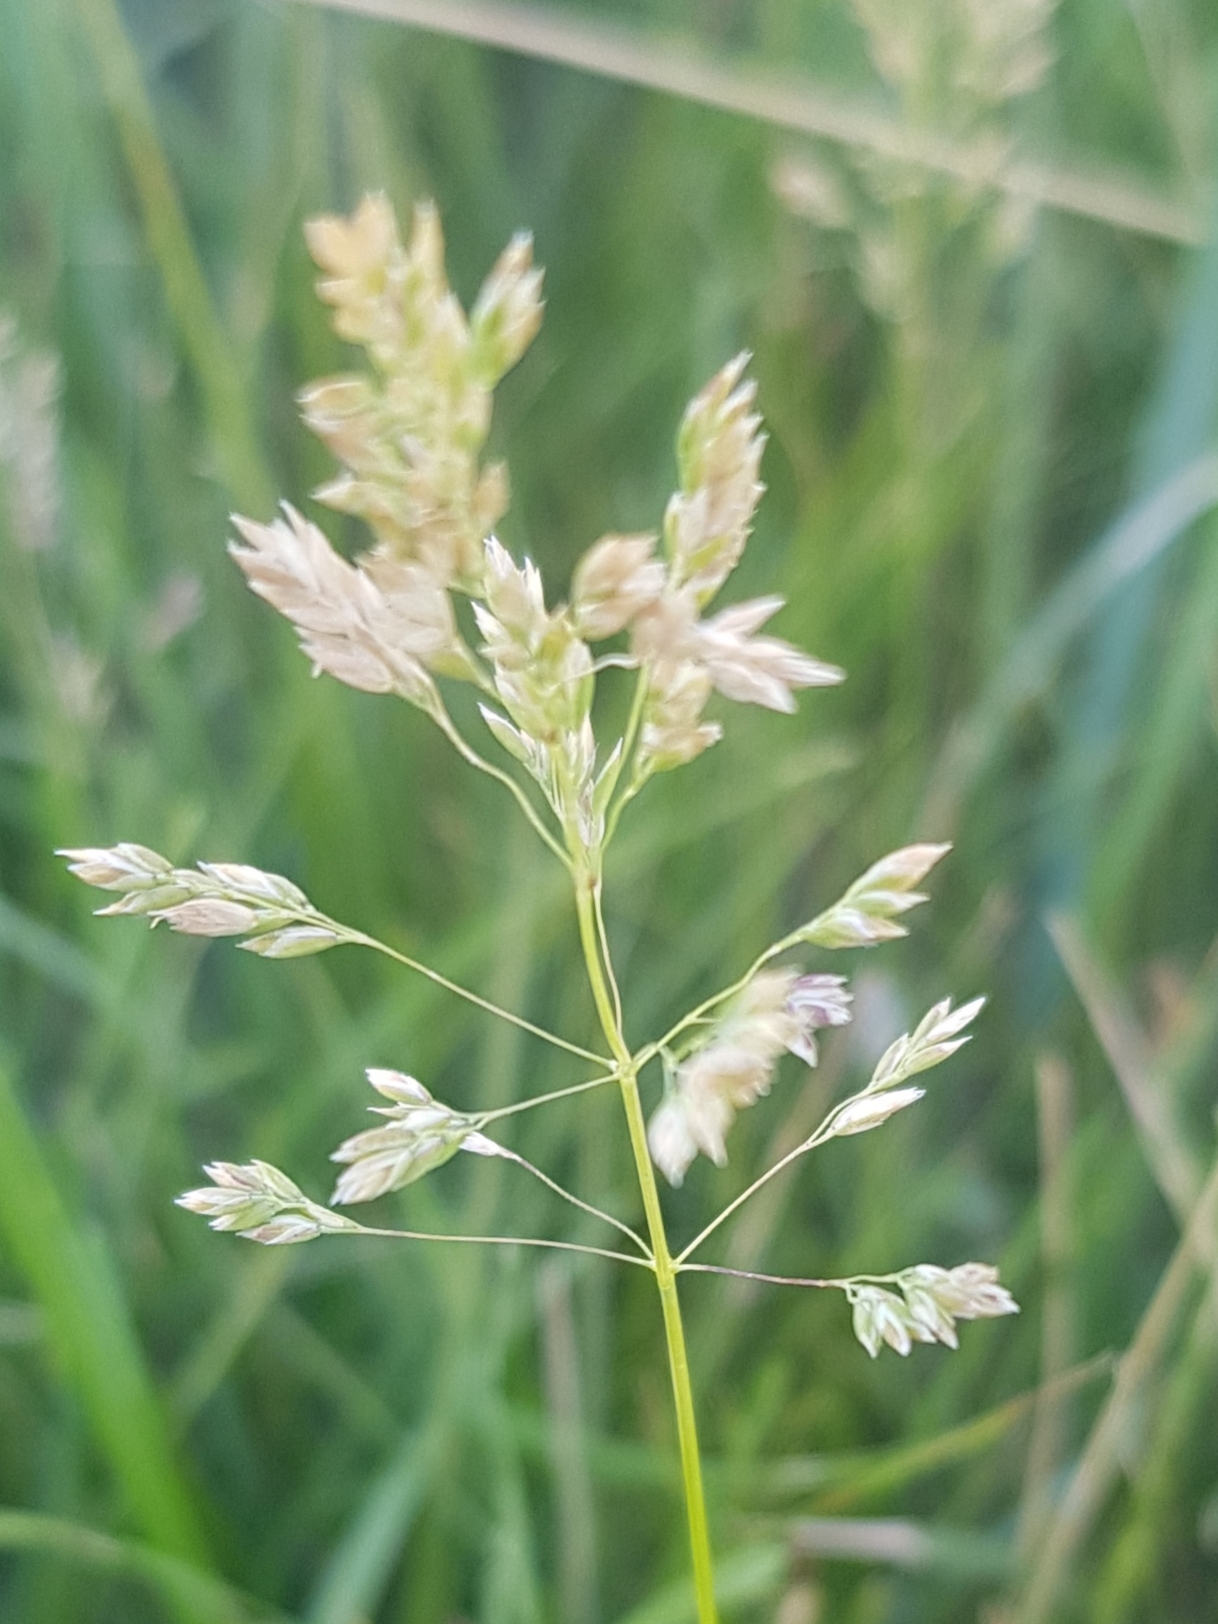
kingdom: Plantae
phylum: Tracheophyta
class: Liliopsida
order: Poales
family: Poaceae
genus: Poa
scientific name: Poa pratensis
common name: Kentucky bluegrass
